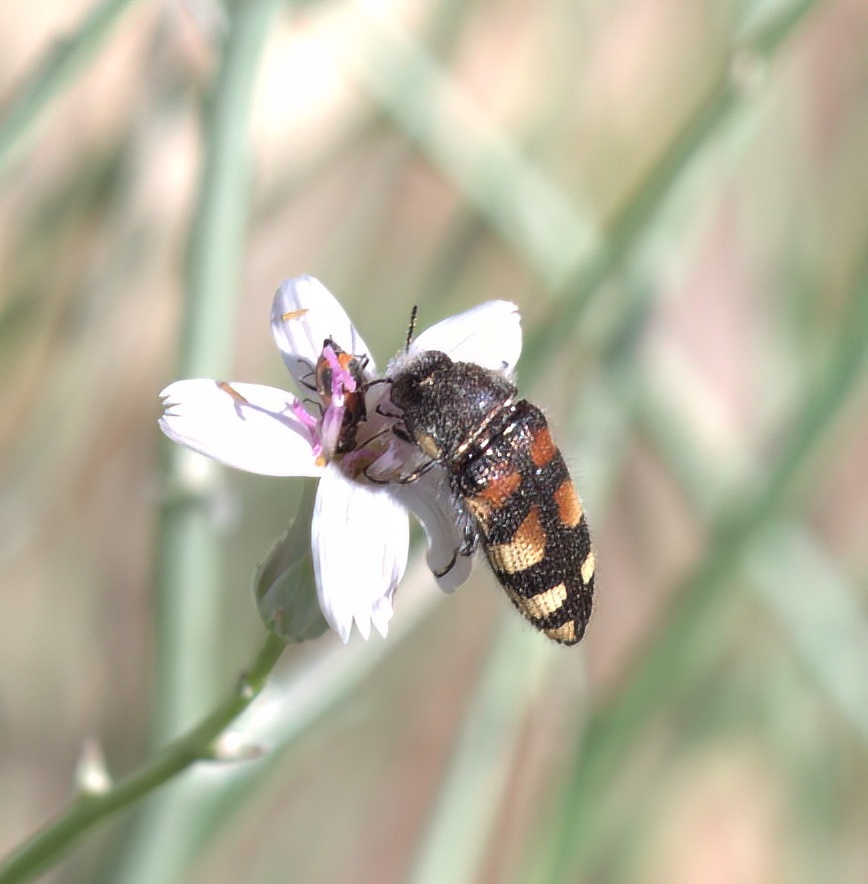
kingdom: Animalia
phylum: Arthropoda
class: Insecta
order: Coleoptera
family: Buprestidae
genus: Acmaeodera
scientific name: Acmaeodera tuta
